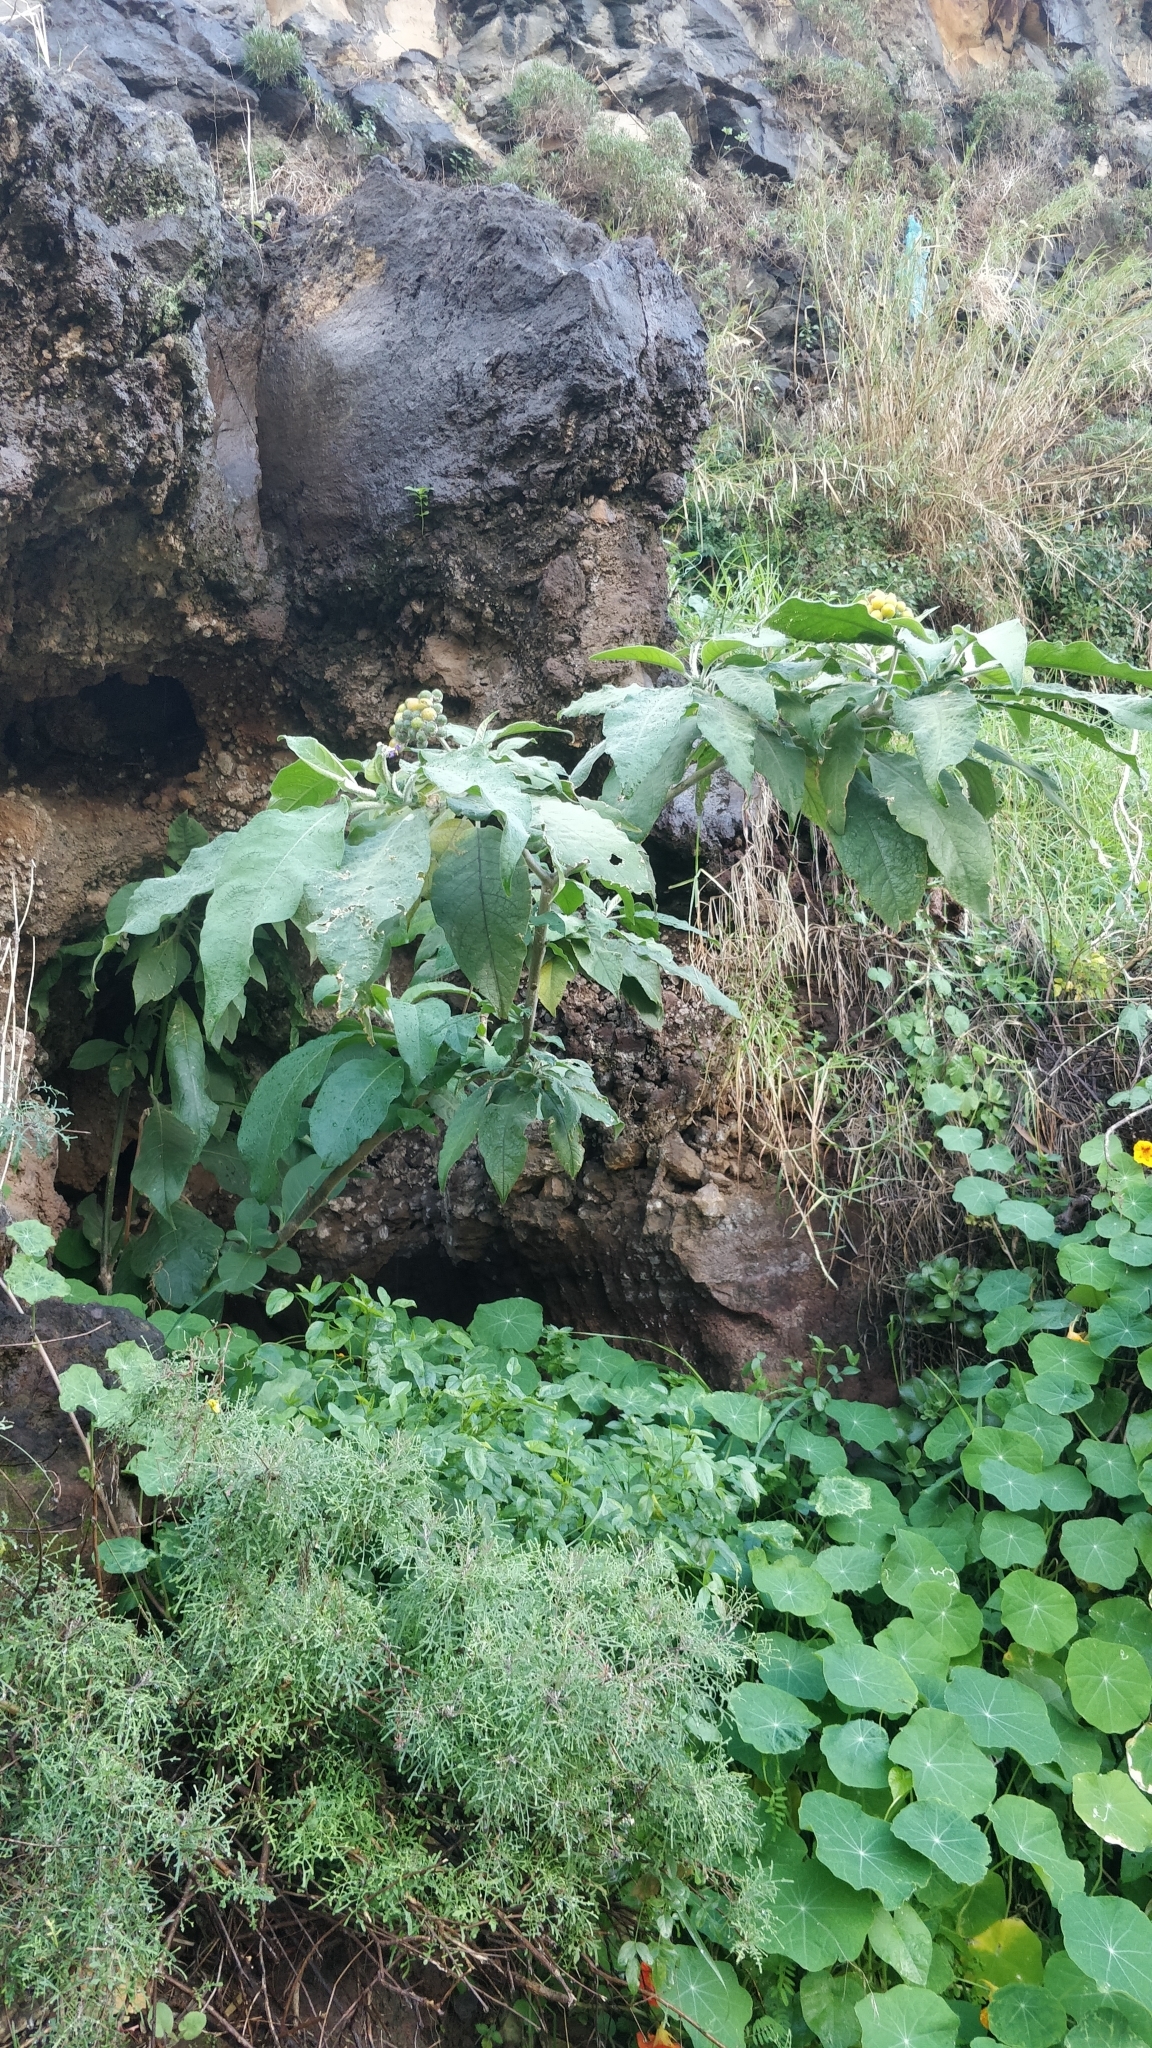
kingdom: Plantae
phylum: Tracheophyta
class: Magnoliopsida
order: Solanales
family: Solanaceae
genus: Solanum
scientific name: Solanum mauritianum
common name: Earleaf nightshade
